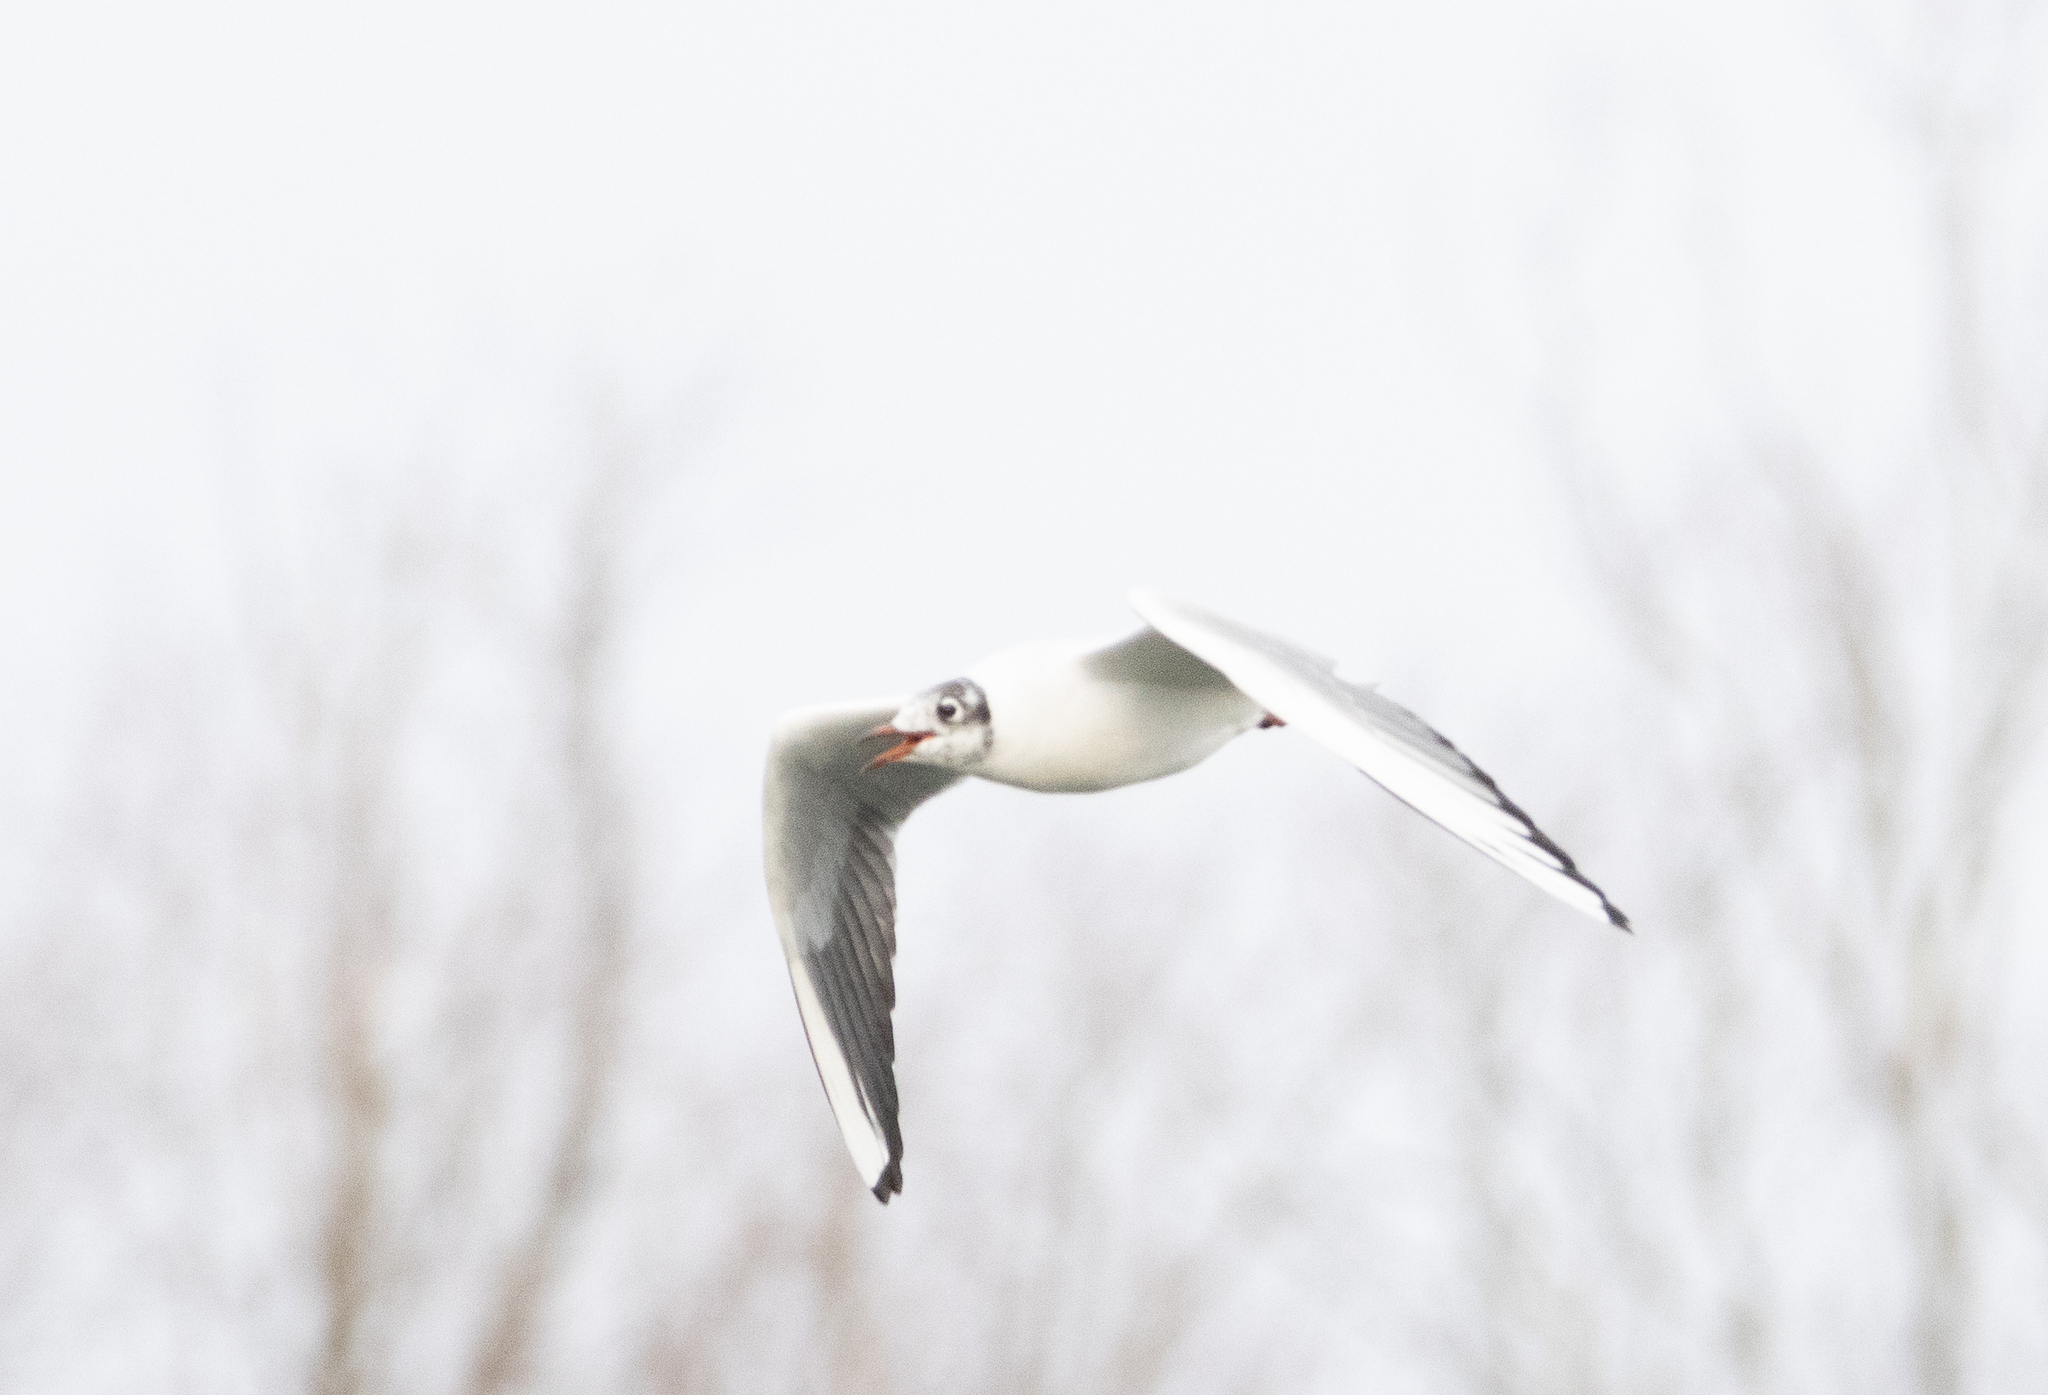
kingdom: Animalia
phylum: Chordata
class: Aves
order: Charadriiformes
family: Laridae
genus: Chroicocephalus
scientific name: Chroicocephalus ridibundus
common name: Black-headed gull
